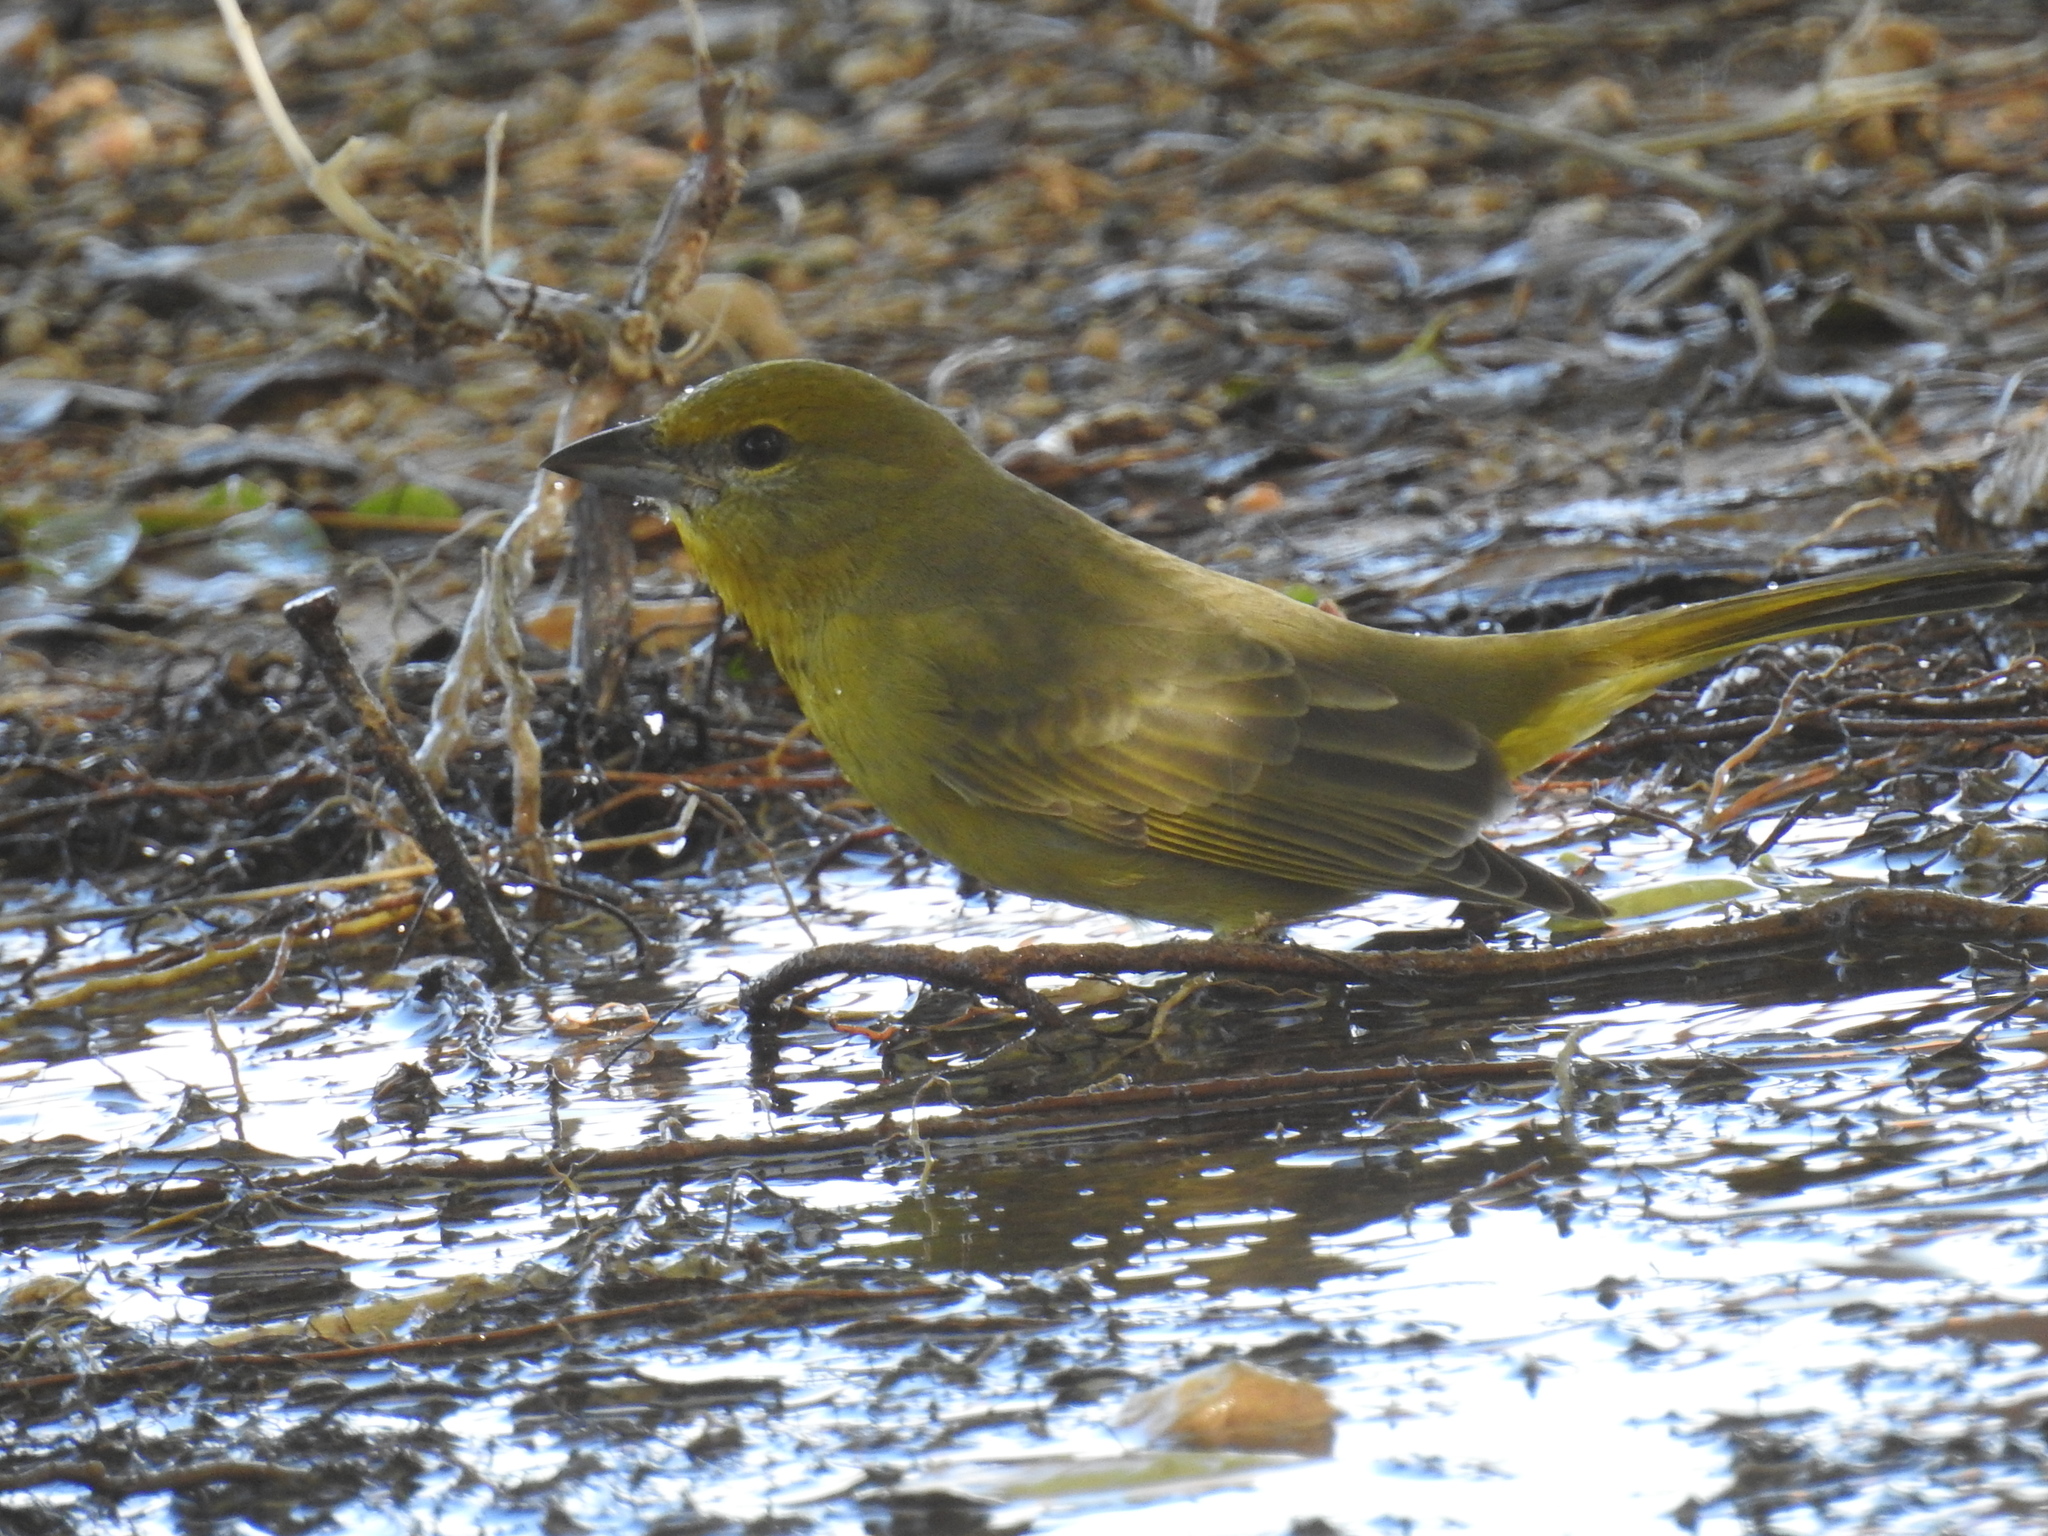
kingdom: Animalia
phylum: Chordata
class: Aves
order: Passeriformes
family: Cardinalidae
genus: Piranga
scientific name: Piranga flava
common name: Red tanager
